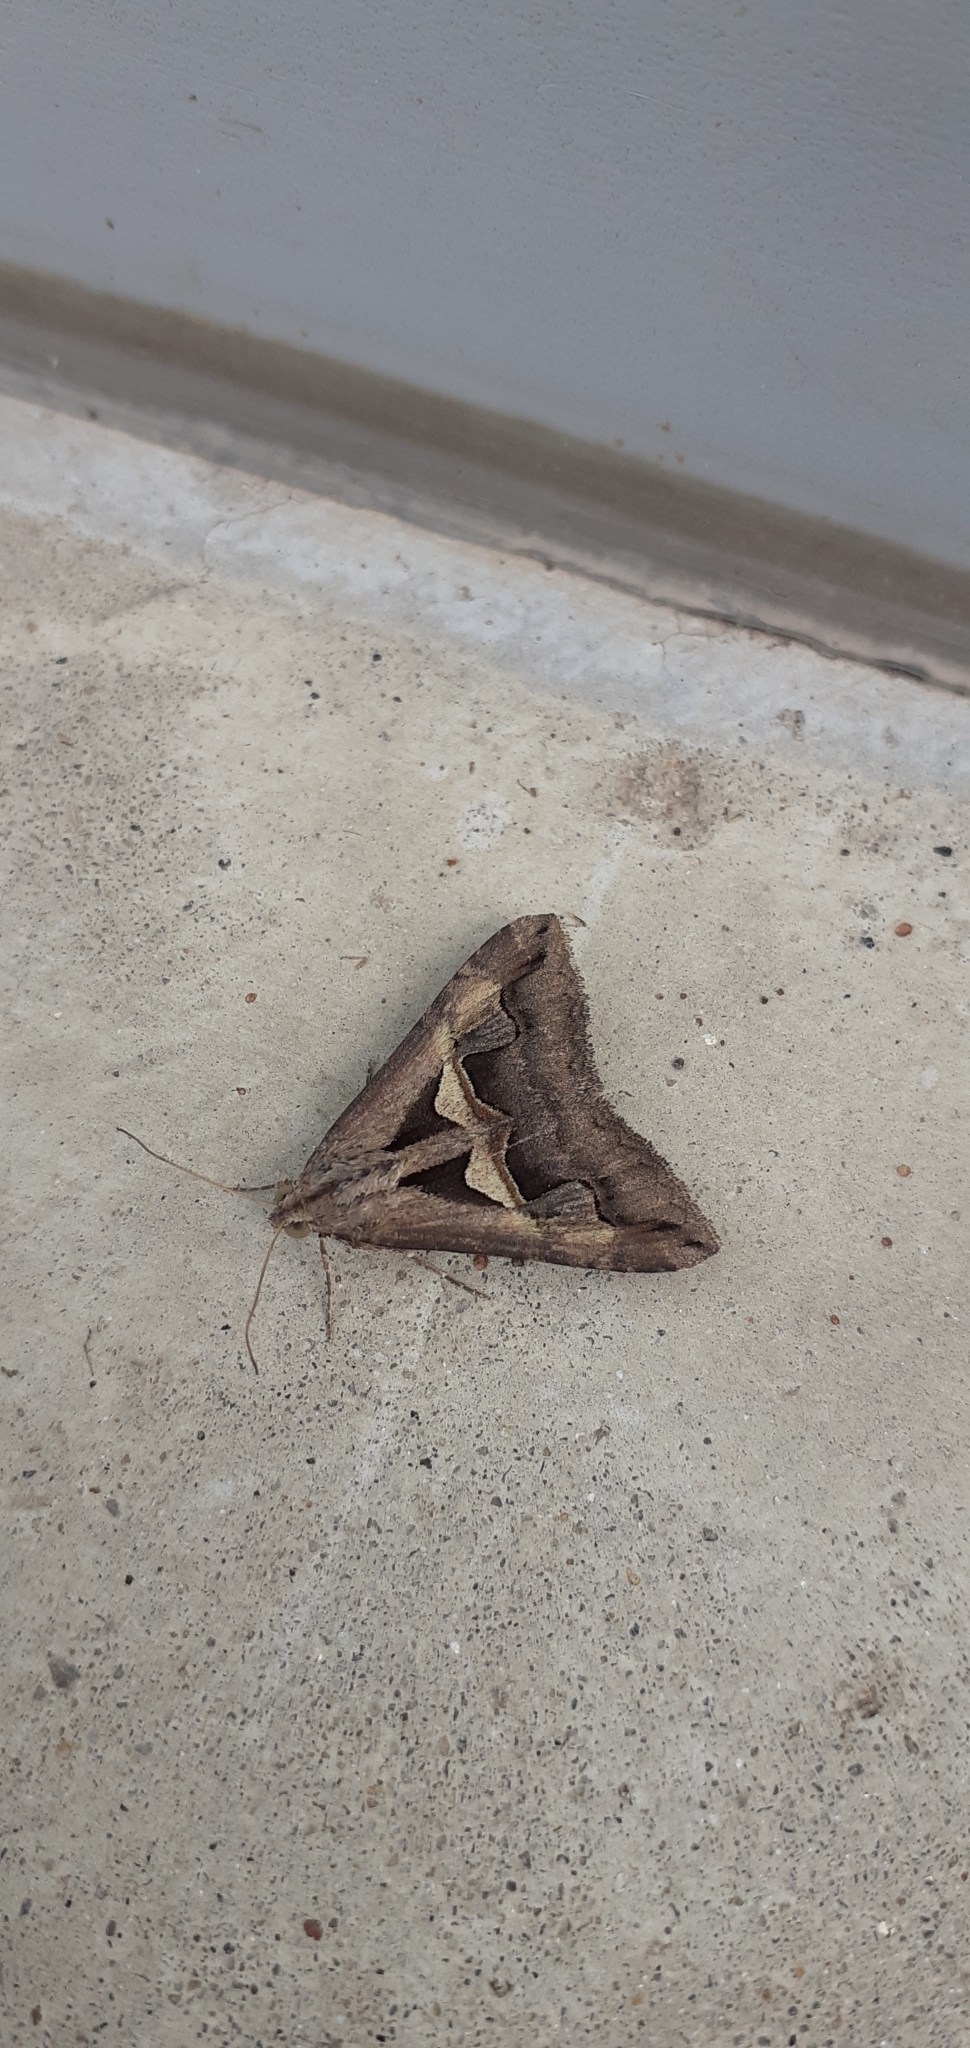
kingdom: Animalia
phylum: Arthropoda
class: Insecta
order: Lepidoptera
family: Erebidae
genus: Melipotis
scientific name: Melipotis cellaris
